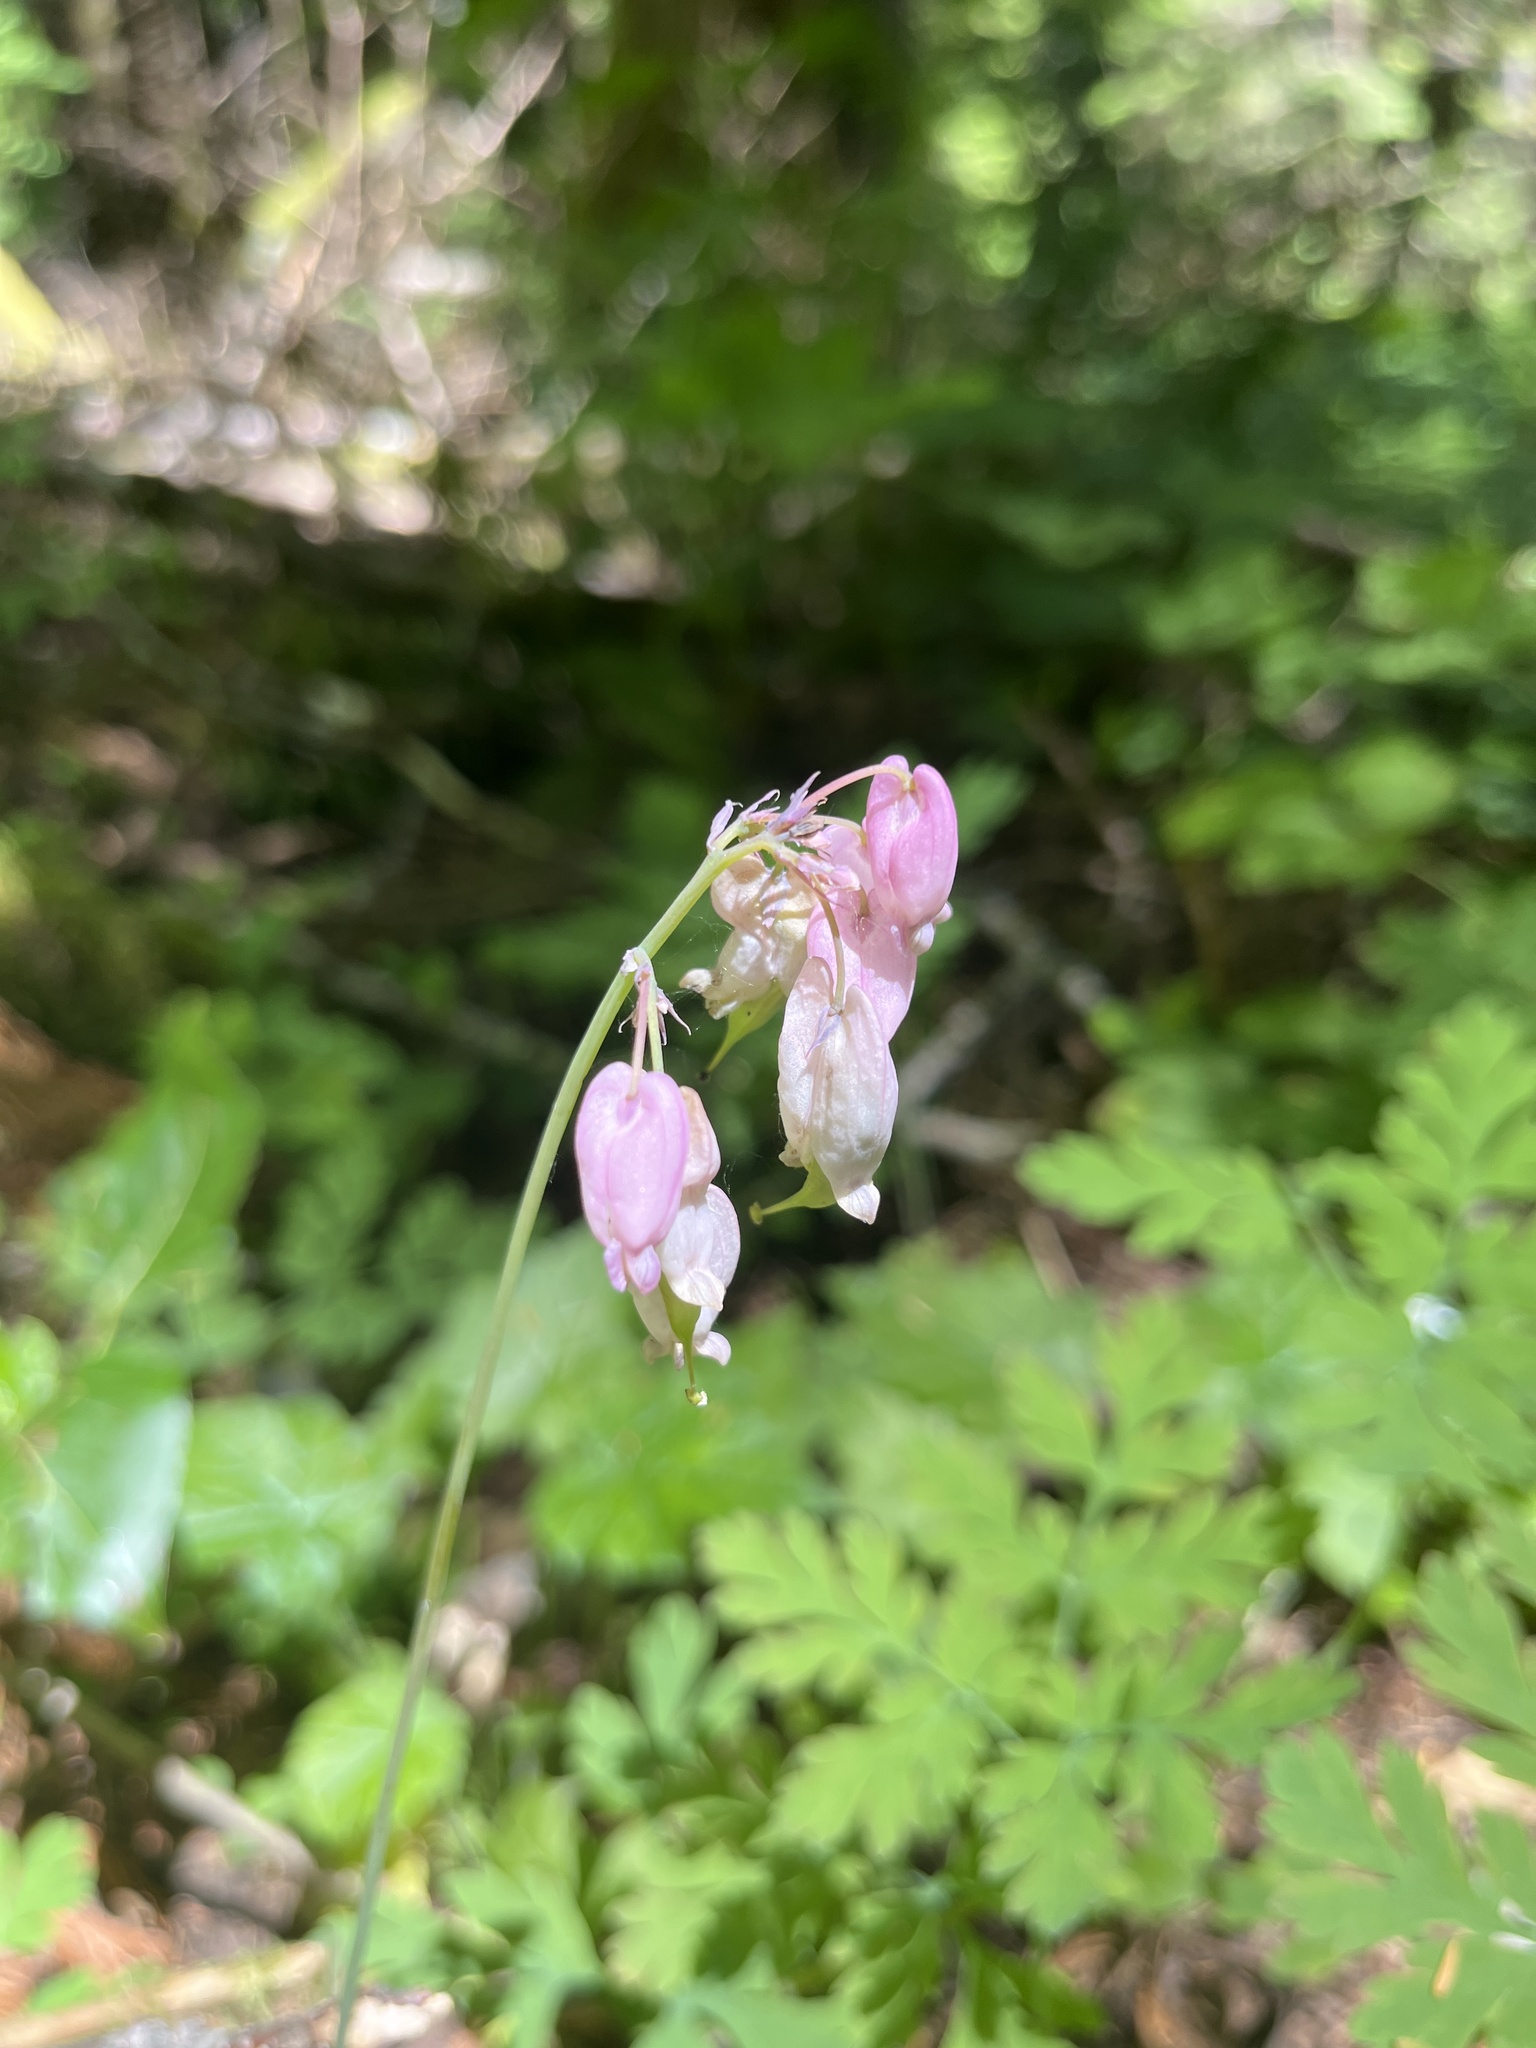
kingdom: Plantae
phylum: Tracheophyta
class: Magnoliopsida
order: Ranunculales
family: Papaveraceae
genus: Dicentra
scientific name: Dicentra formosa
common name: Bleeding-heart
